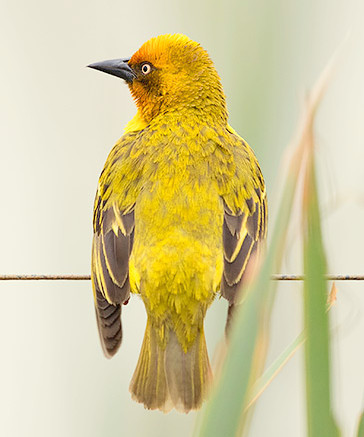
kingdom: Animalia
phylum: Chordata
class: Aves
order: Passeriformes
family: Ploceidae
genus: Ploceus
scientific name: Ploceus capensis
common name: Cape weaver
